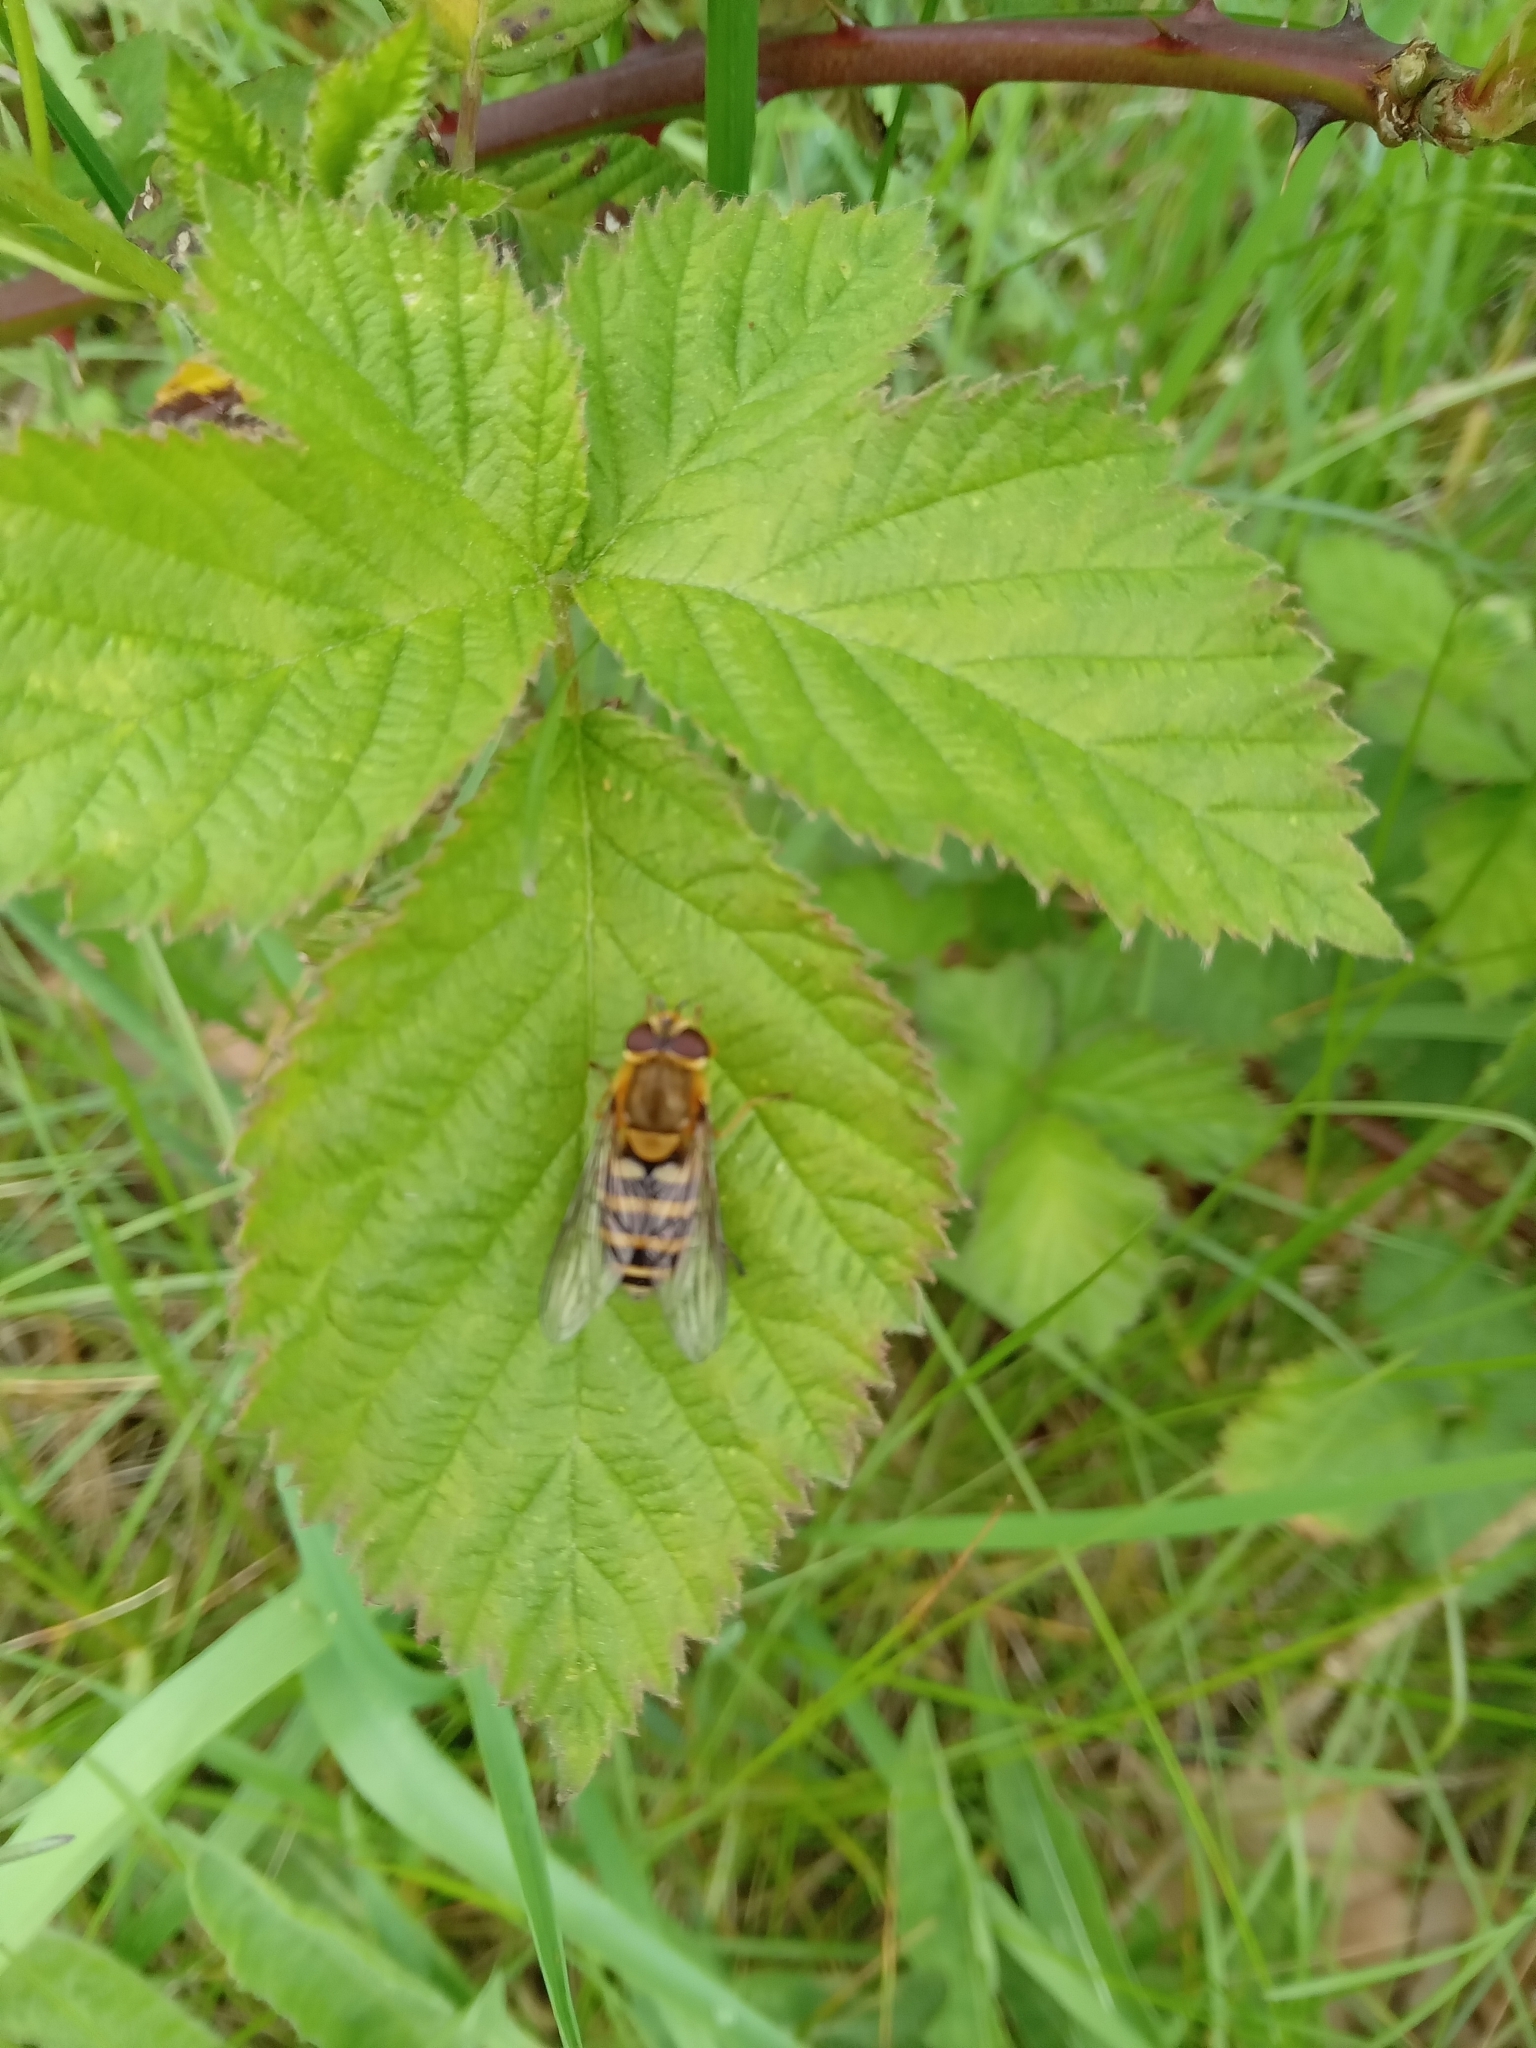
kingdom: Animalia
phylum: Arthropoda
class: Insecta
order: Diptera
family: Syrphidae
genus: Syrphus
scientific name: Syrphus
